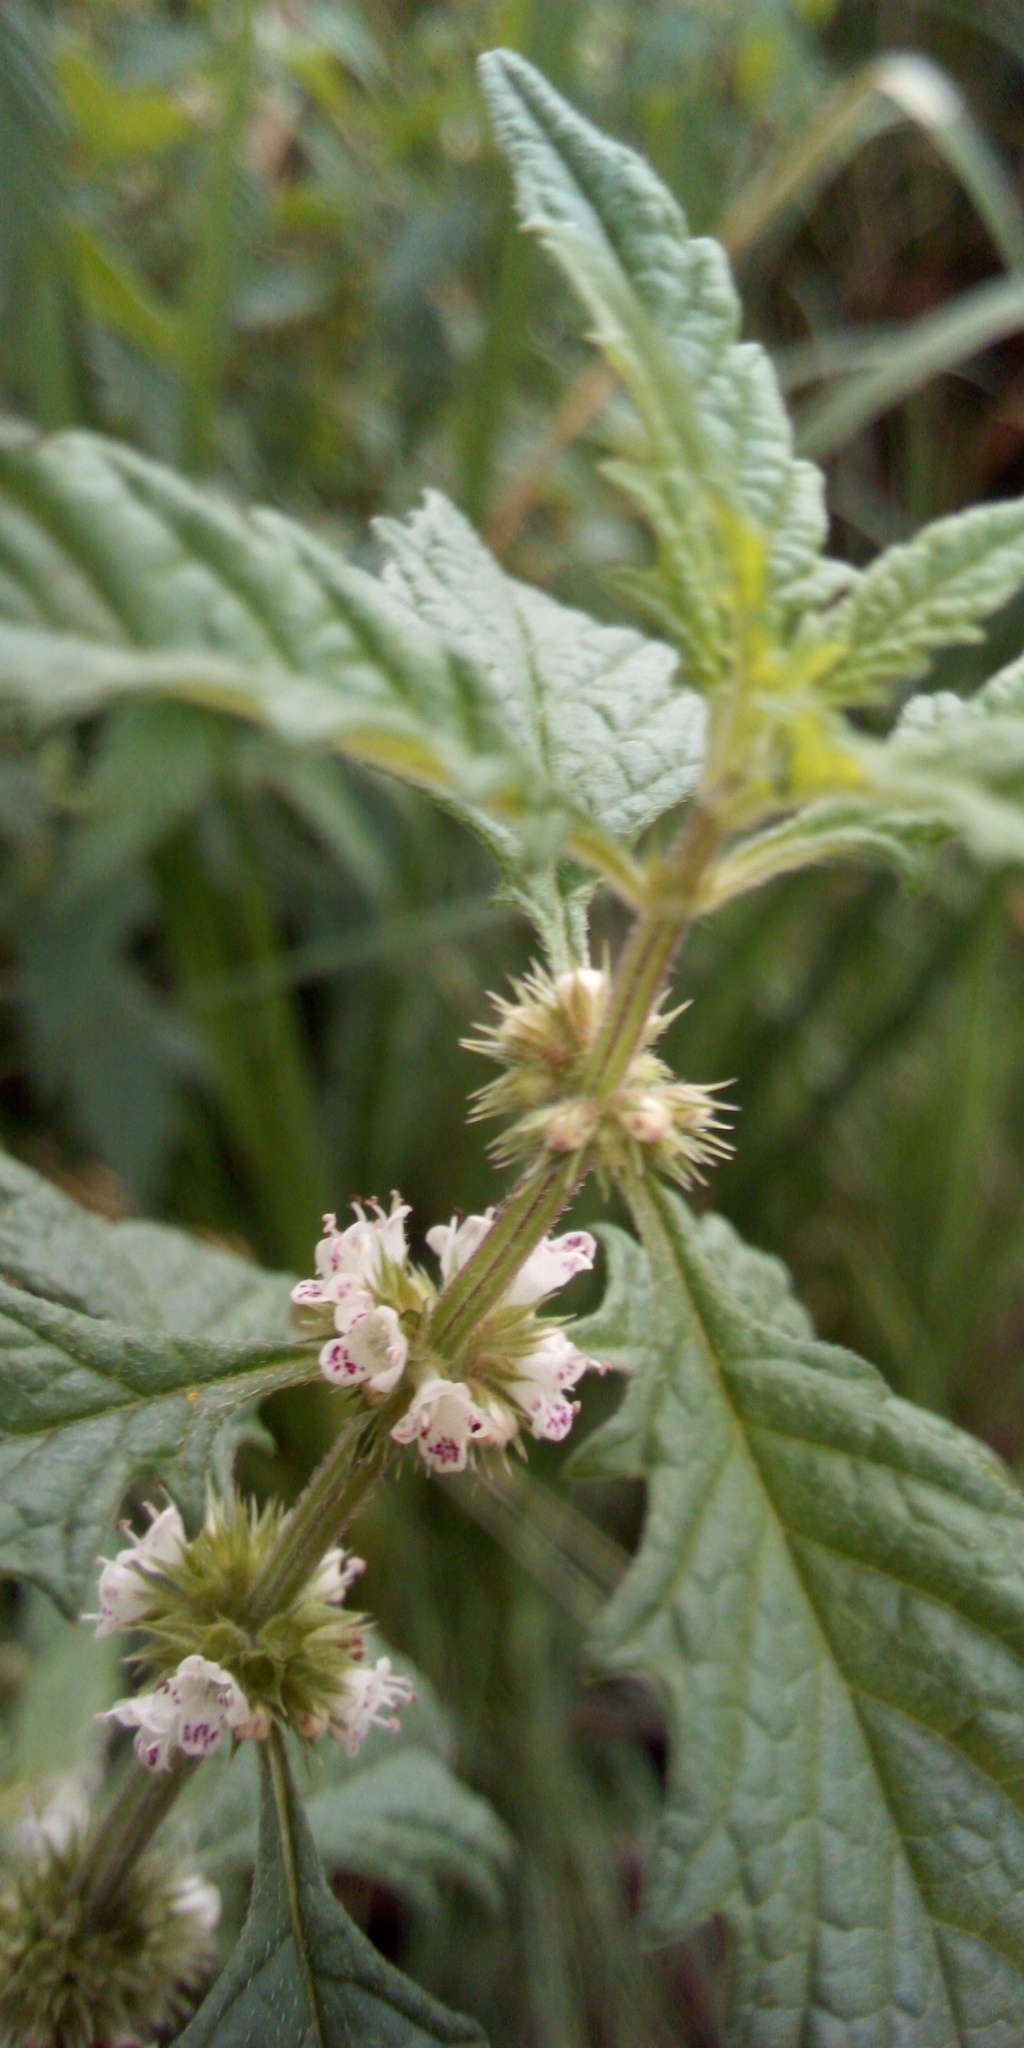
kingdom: Plantae
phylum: Tracheophyta
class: Magnoliopsida
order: Lamiales
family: Lamiaceae
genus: Lycopus
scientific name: Lycopus europaeus
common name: European bugleweed
